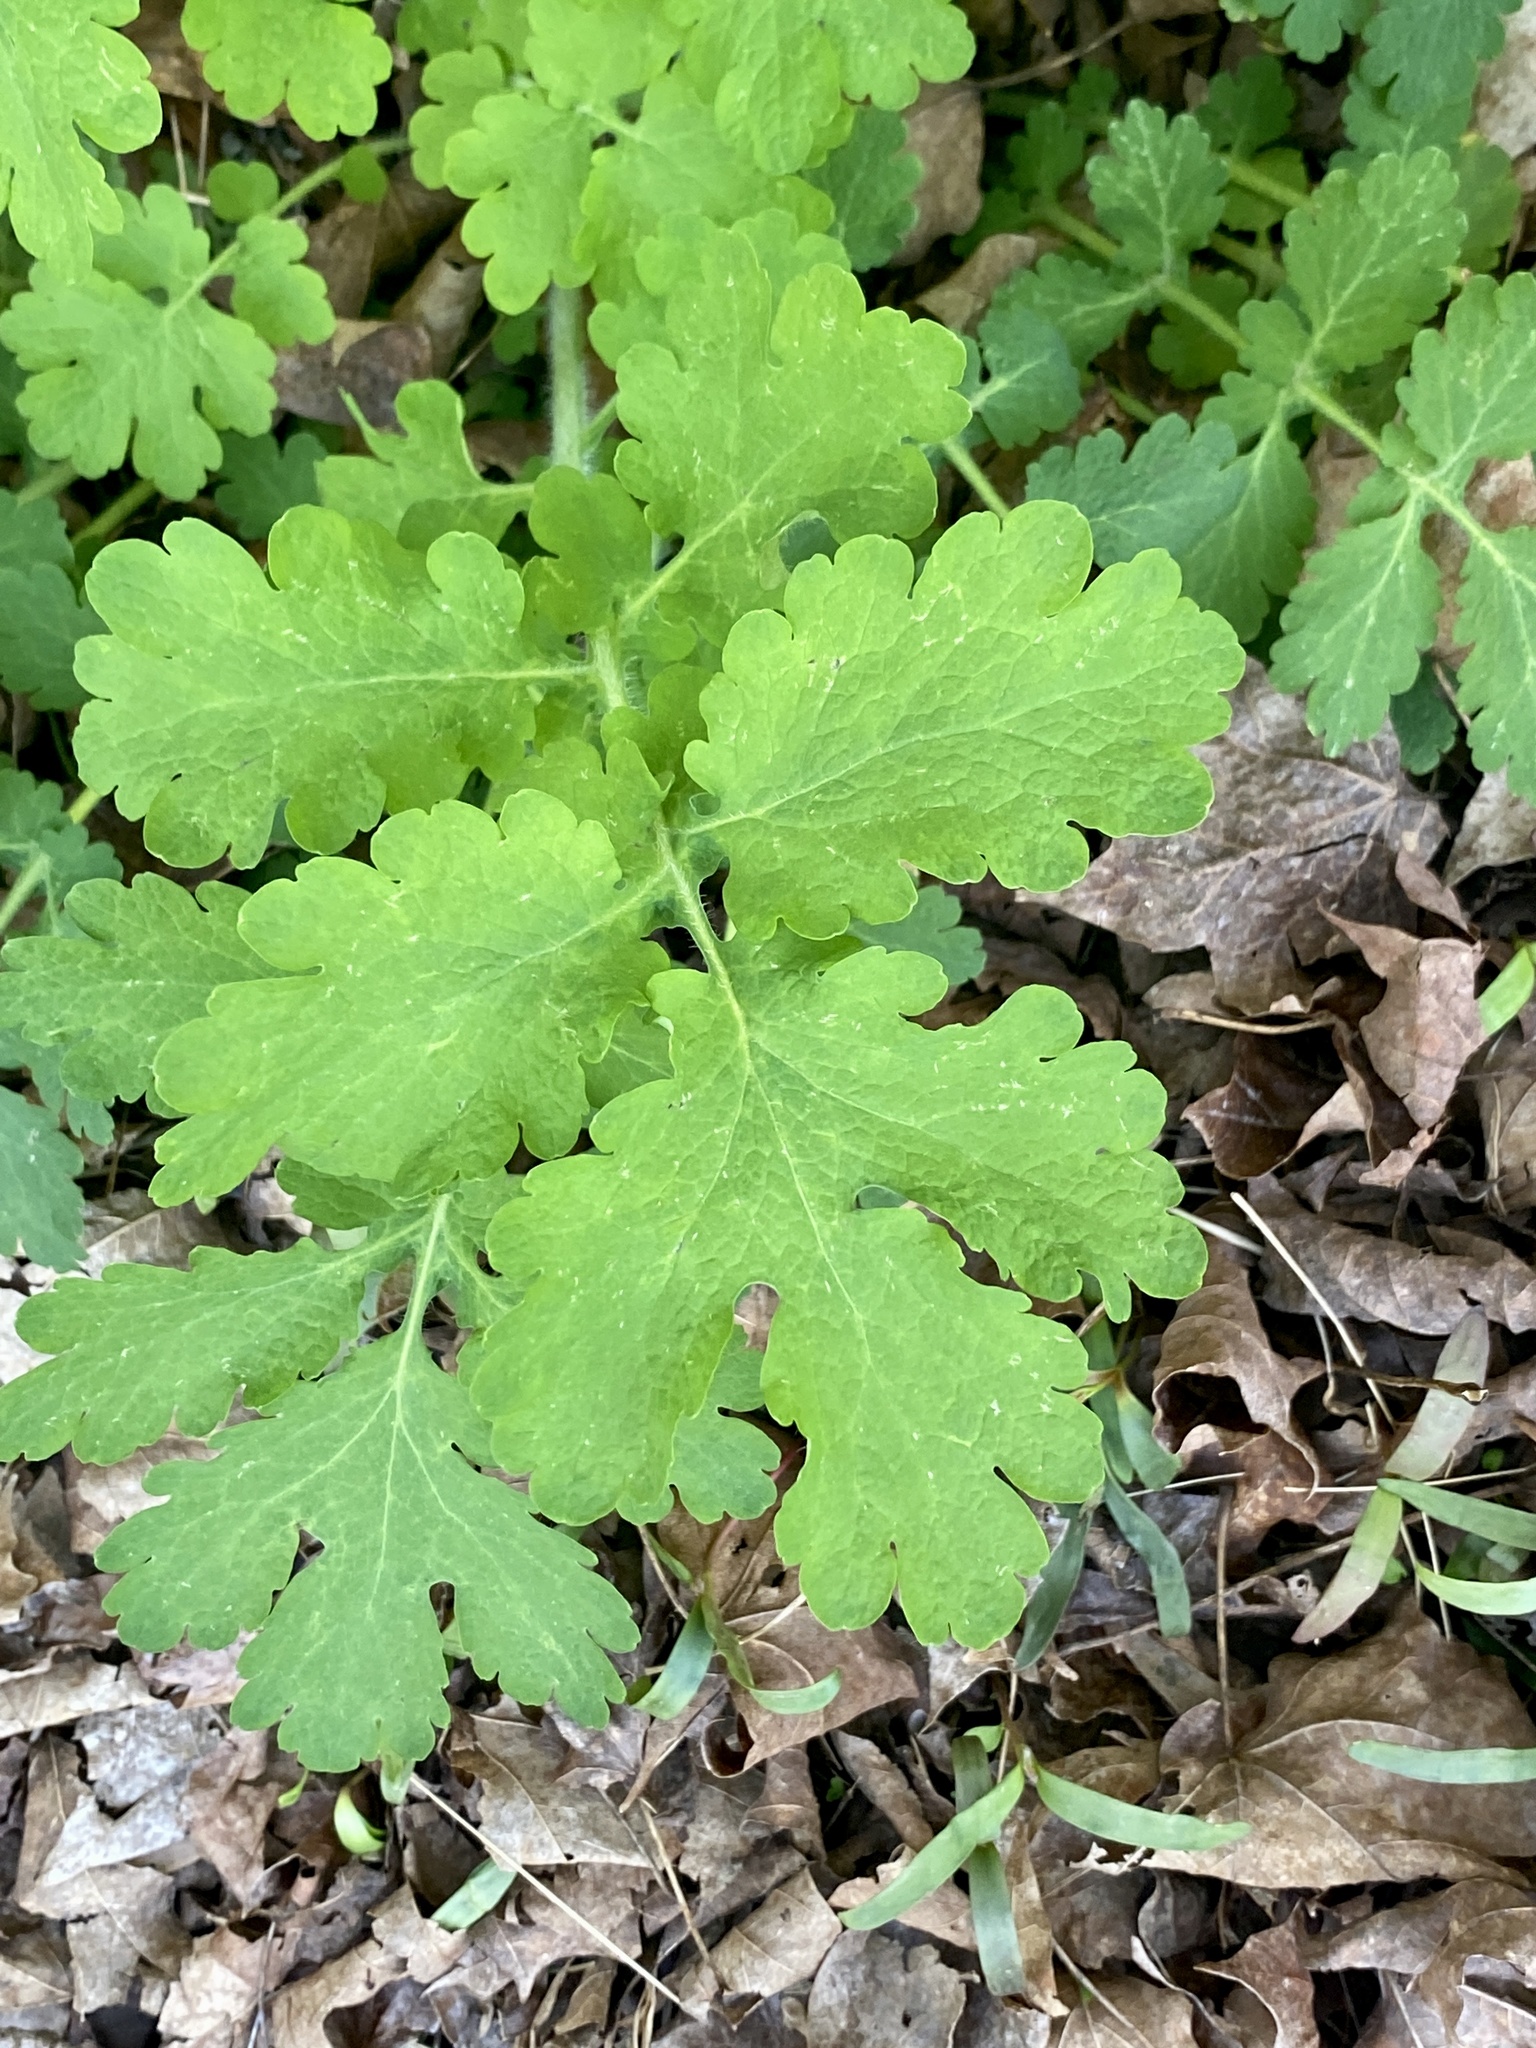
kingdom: Plantae
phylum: Tracheophyta
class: Magnoliopsida
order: Ranunculales
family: Papaveraceae
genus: Chelidonium
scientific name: Chelidonium majus
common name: Greater celandine
